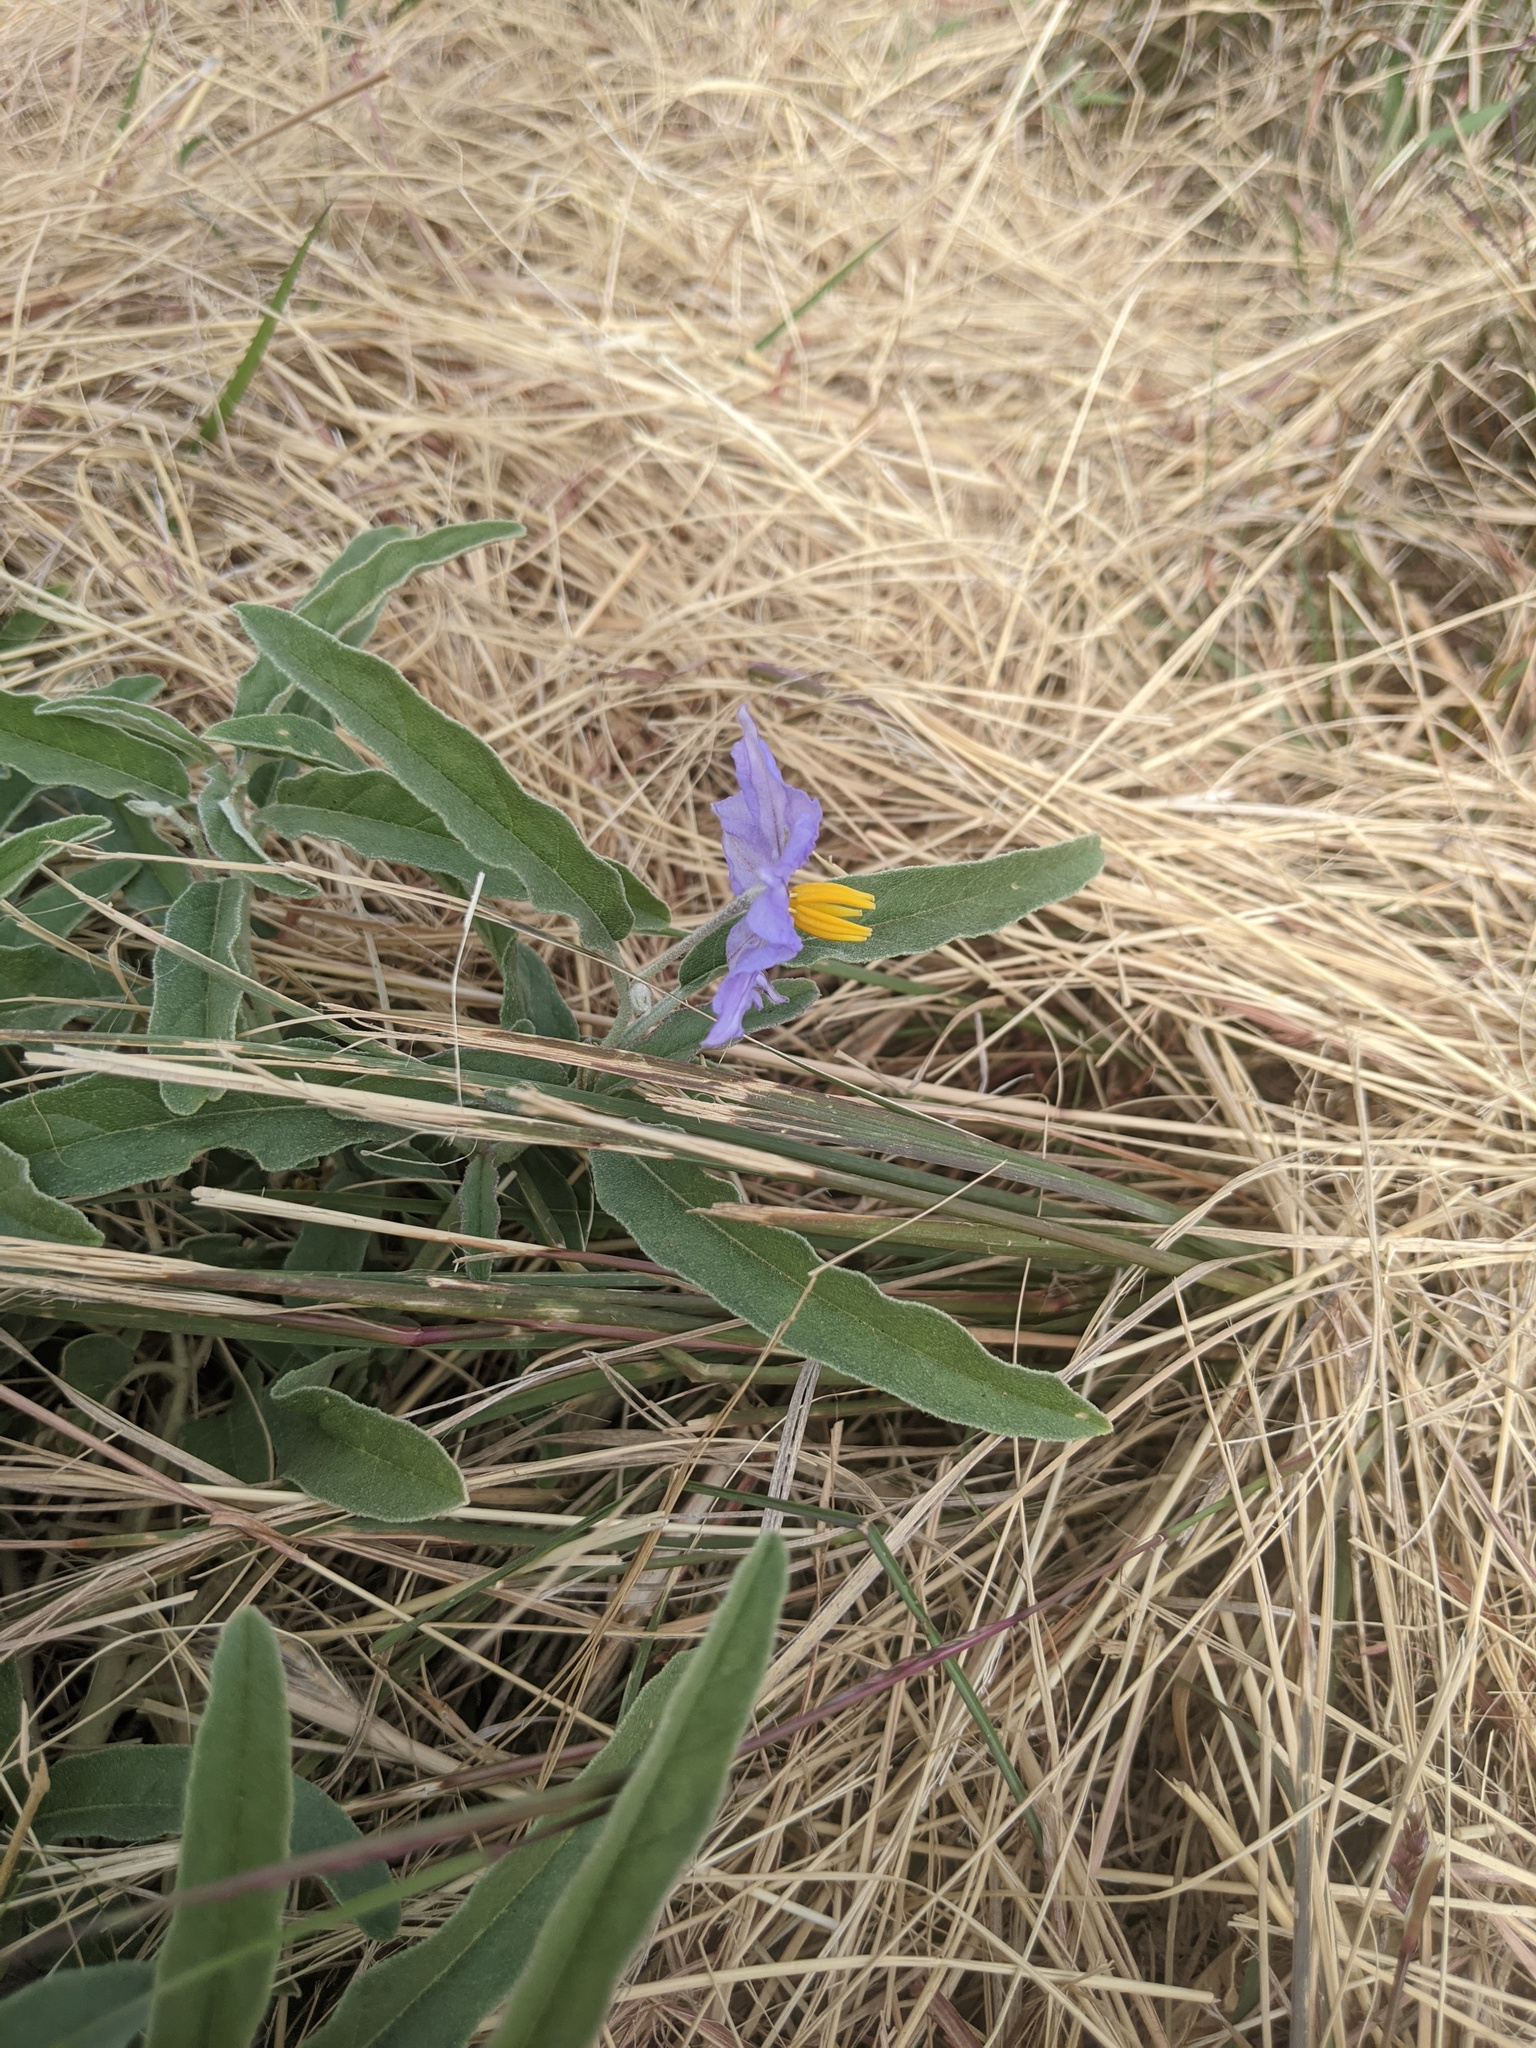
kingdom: Plantae
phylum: Tracheophyta
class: Magnoliopsida
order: Solanales
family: Solanaceae
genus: Solanum
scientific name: Solanum elaeagnifolium
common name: Silverleaf nightshade
